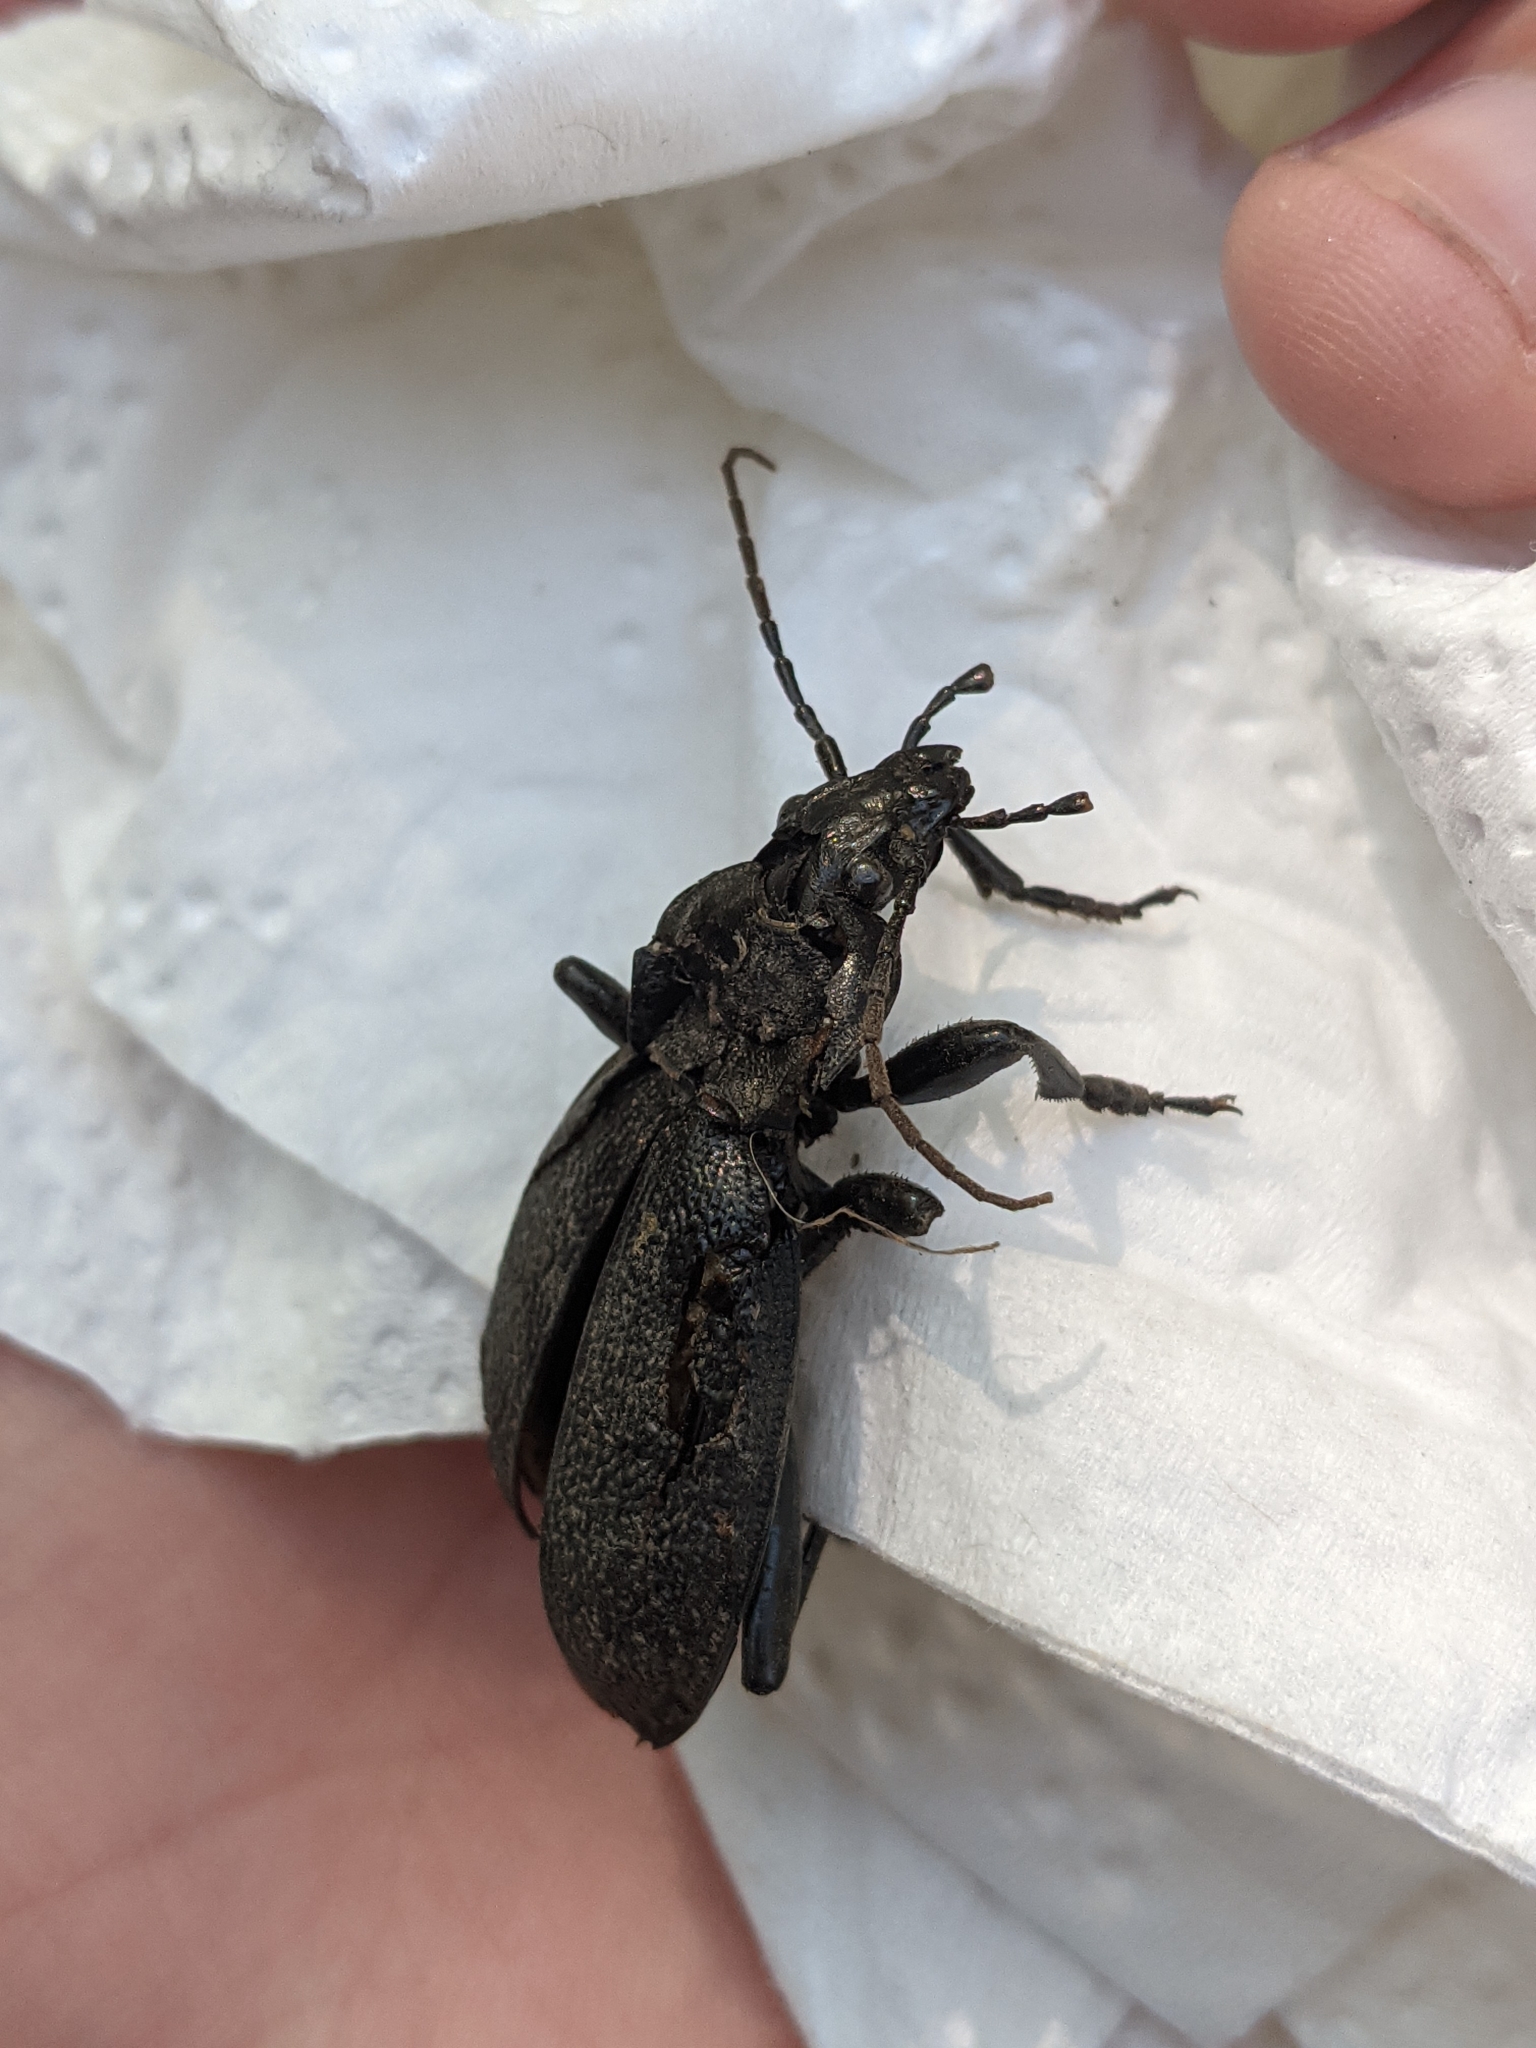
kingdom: Animalia
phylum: Arthropoda
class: Insecta
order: Coleoptera
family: Carabidae
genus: Carabus
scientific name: Carabus coriaceus
